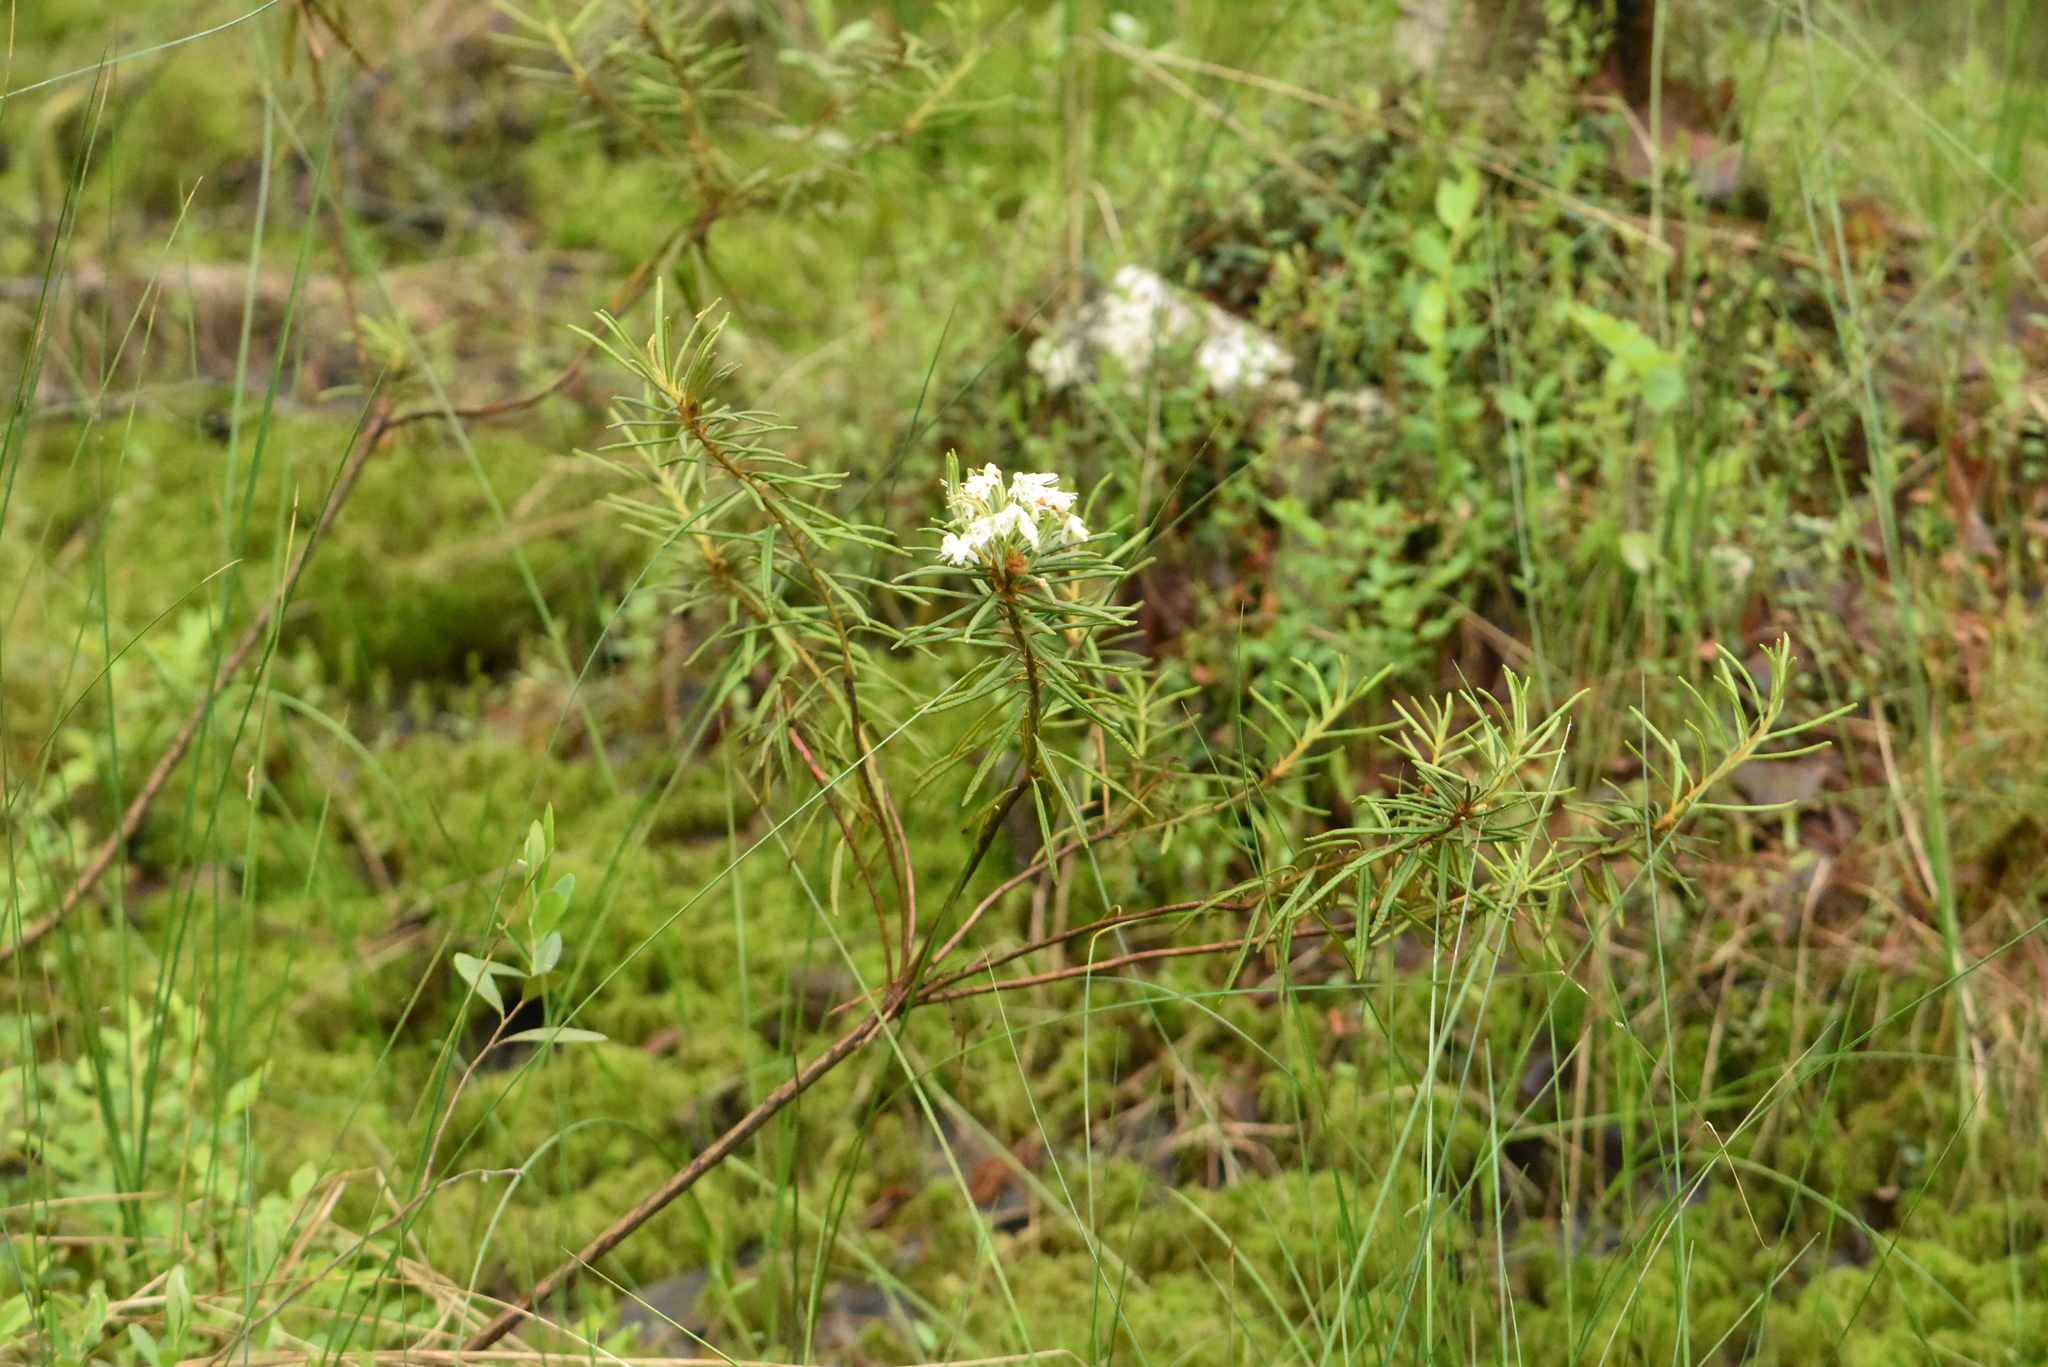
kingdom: Plantae
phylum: Tracheophyta
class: Magnoliopsida
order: Ericales
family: Ericaceae
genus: Rhododendron
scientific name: Rhododendron tomentosum
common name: Marsh labrador tea
